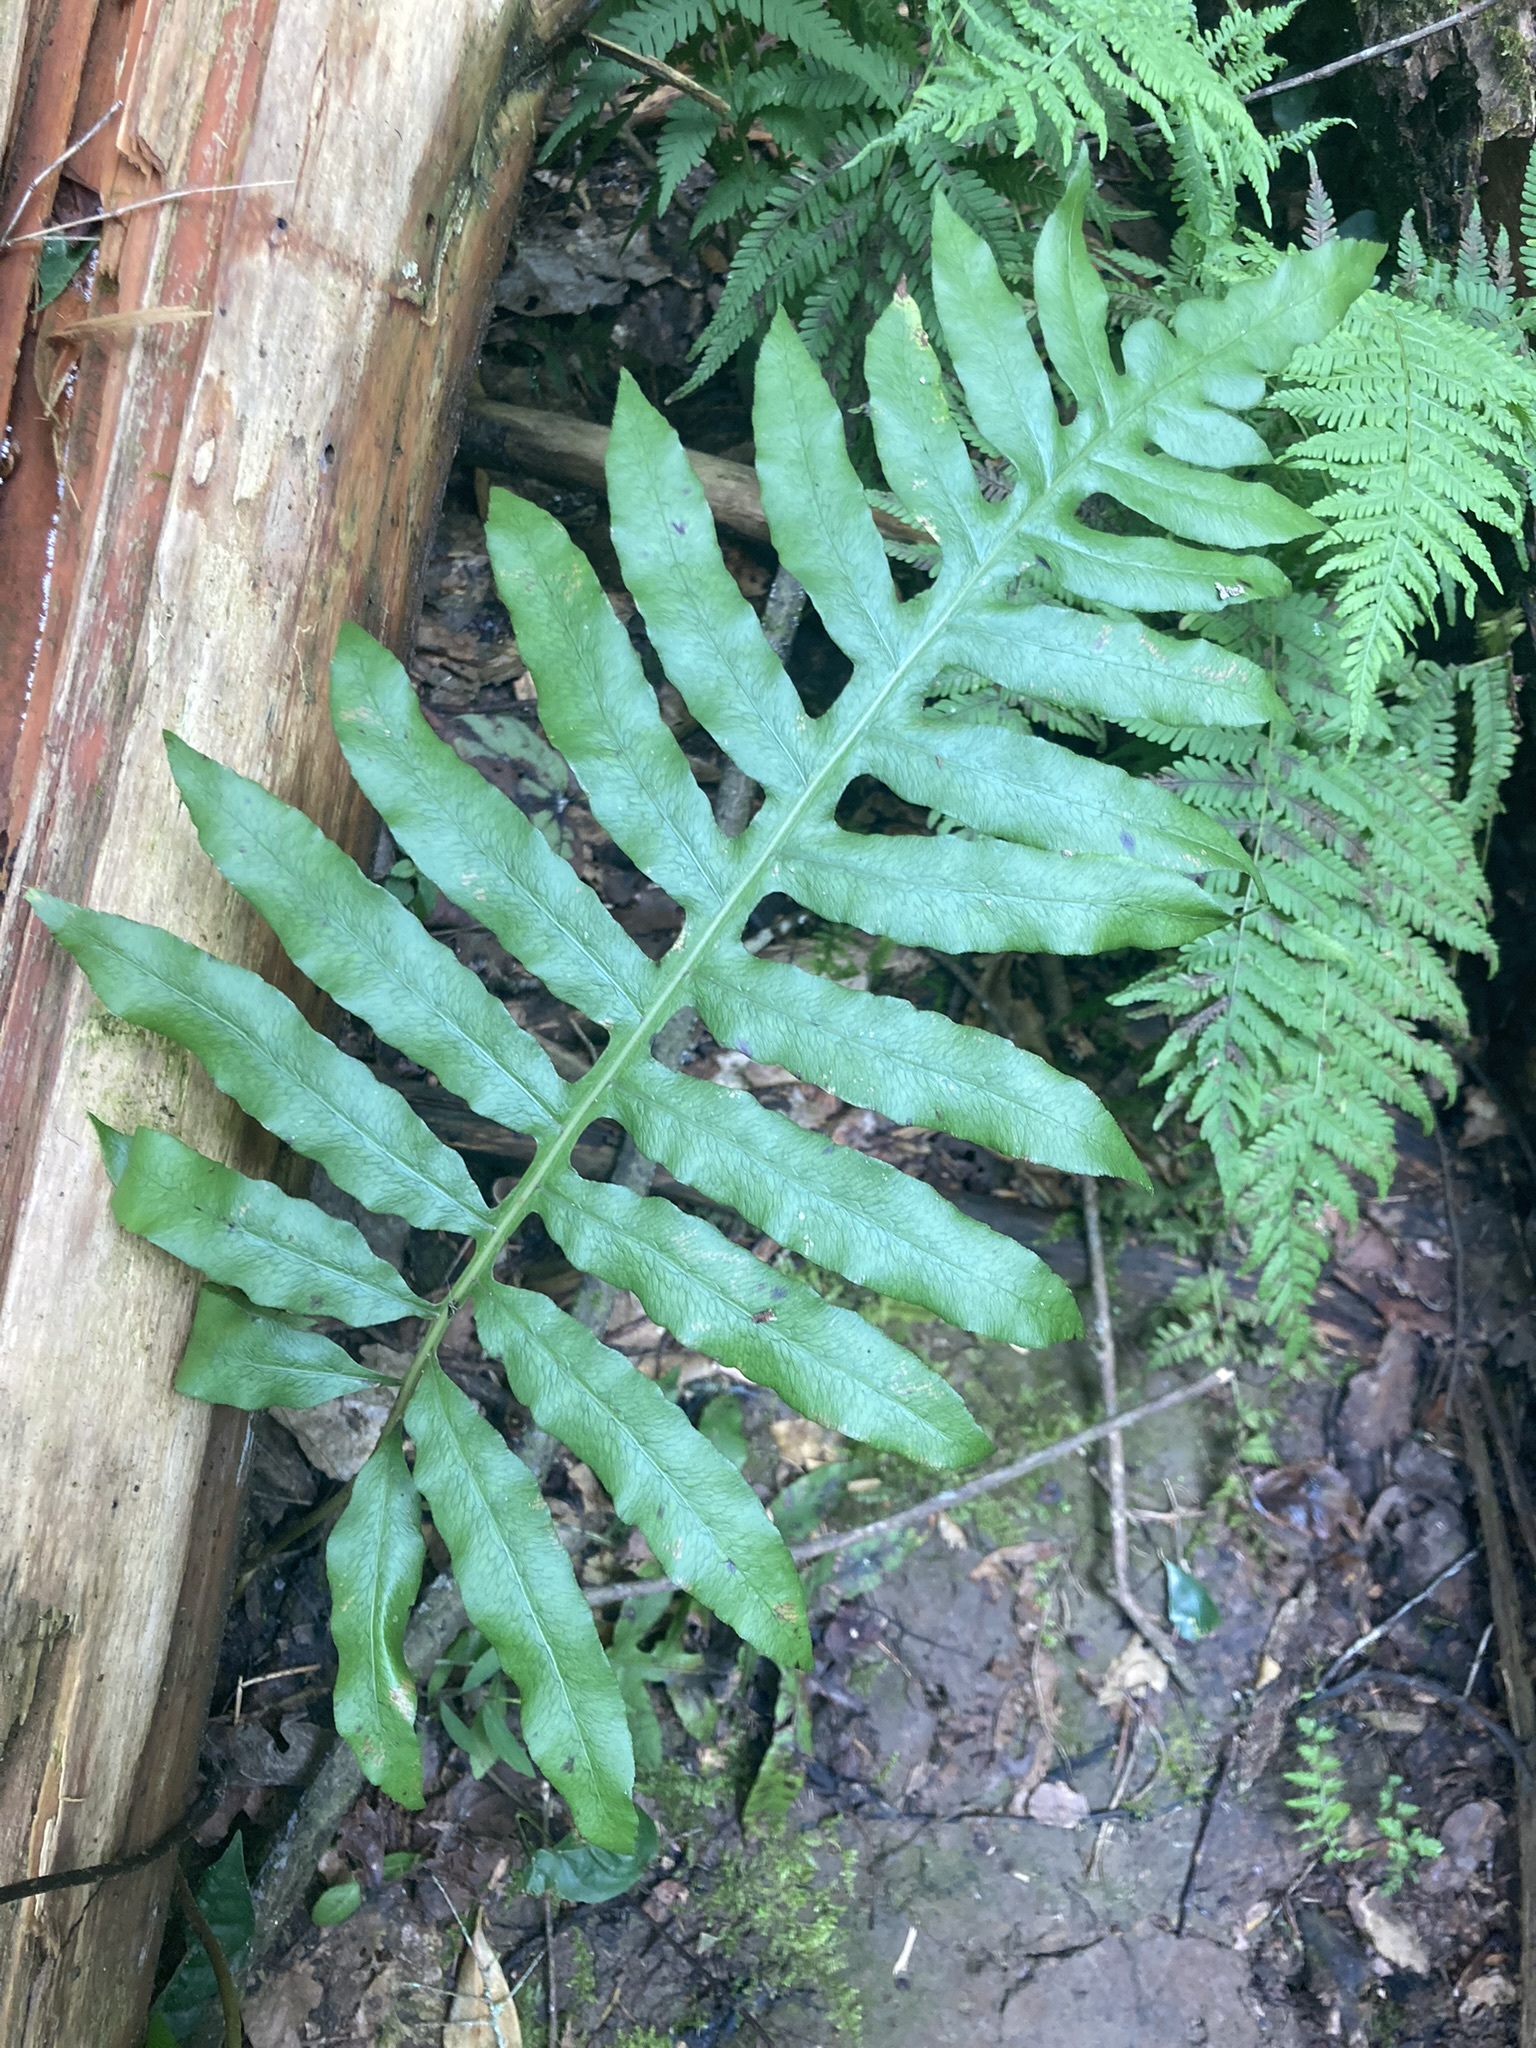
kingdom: Plantae
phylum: Tracheophyta
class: Polypodiopsida
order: Polypodiales
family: Blechnaceae
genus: Lorinseria
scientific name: Lorinseria areolata
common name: Dwarf chain fern
